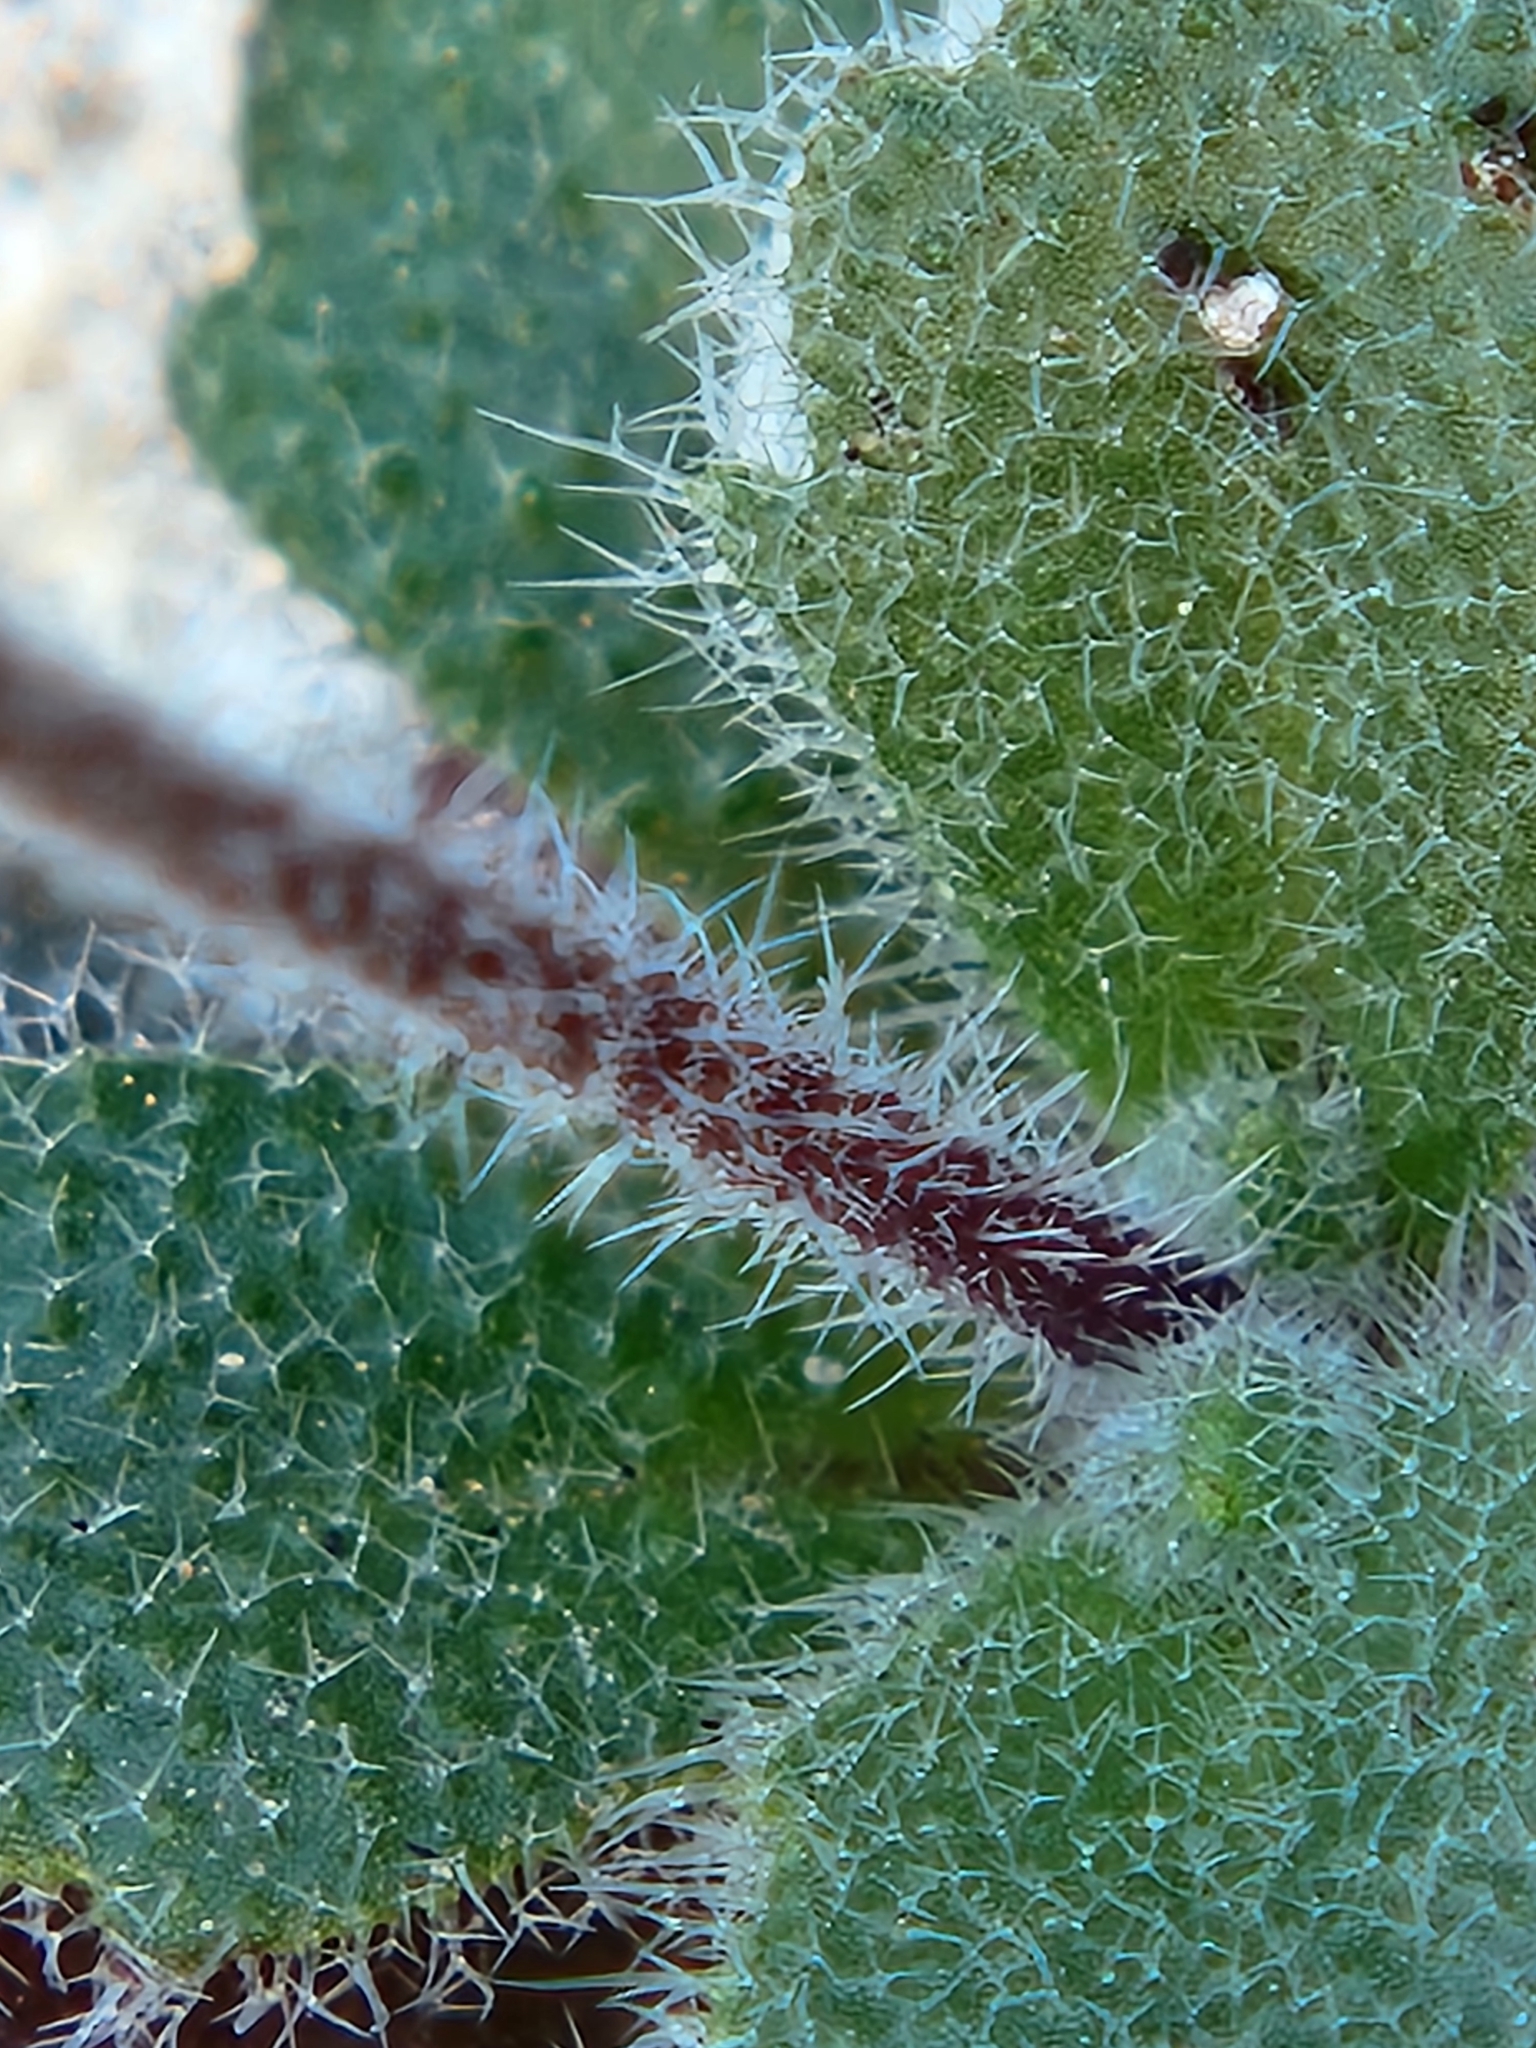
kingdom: Plantae
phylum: Tracheophyta
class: Magnoliopsida
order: Brassicales
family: Brassicaceae
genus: Tomostima
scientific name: Tomostima cuneifolia
